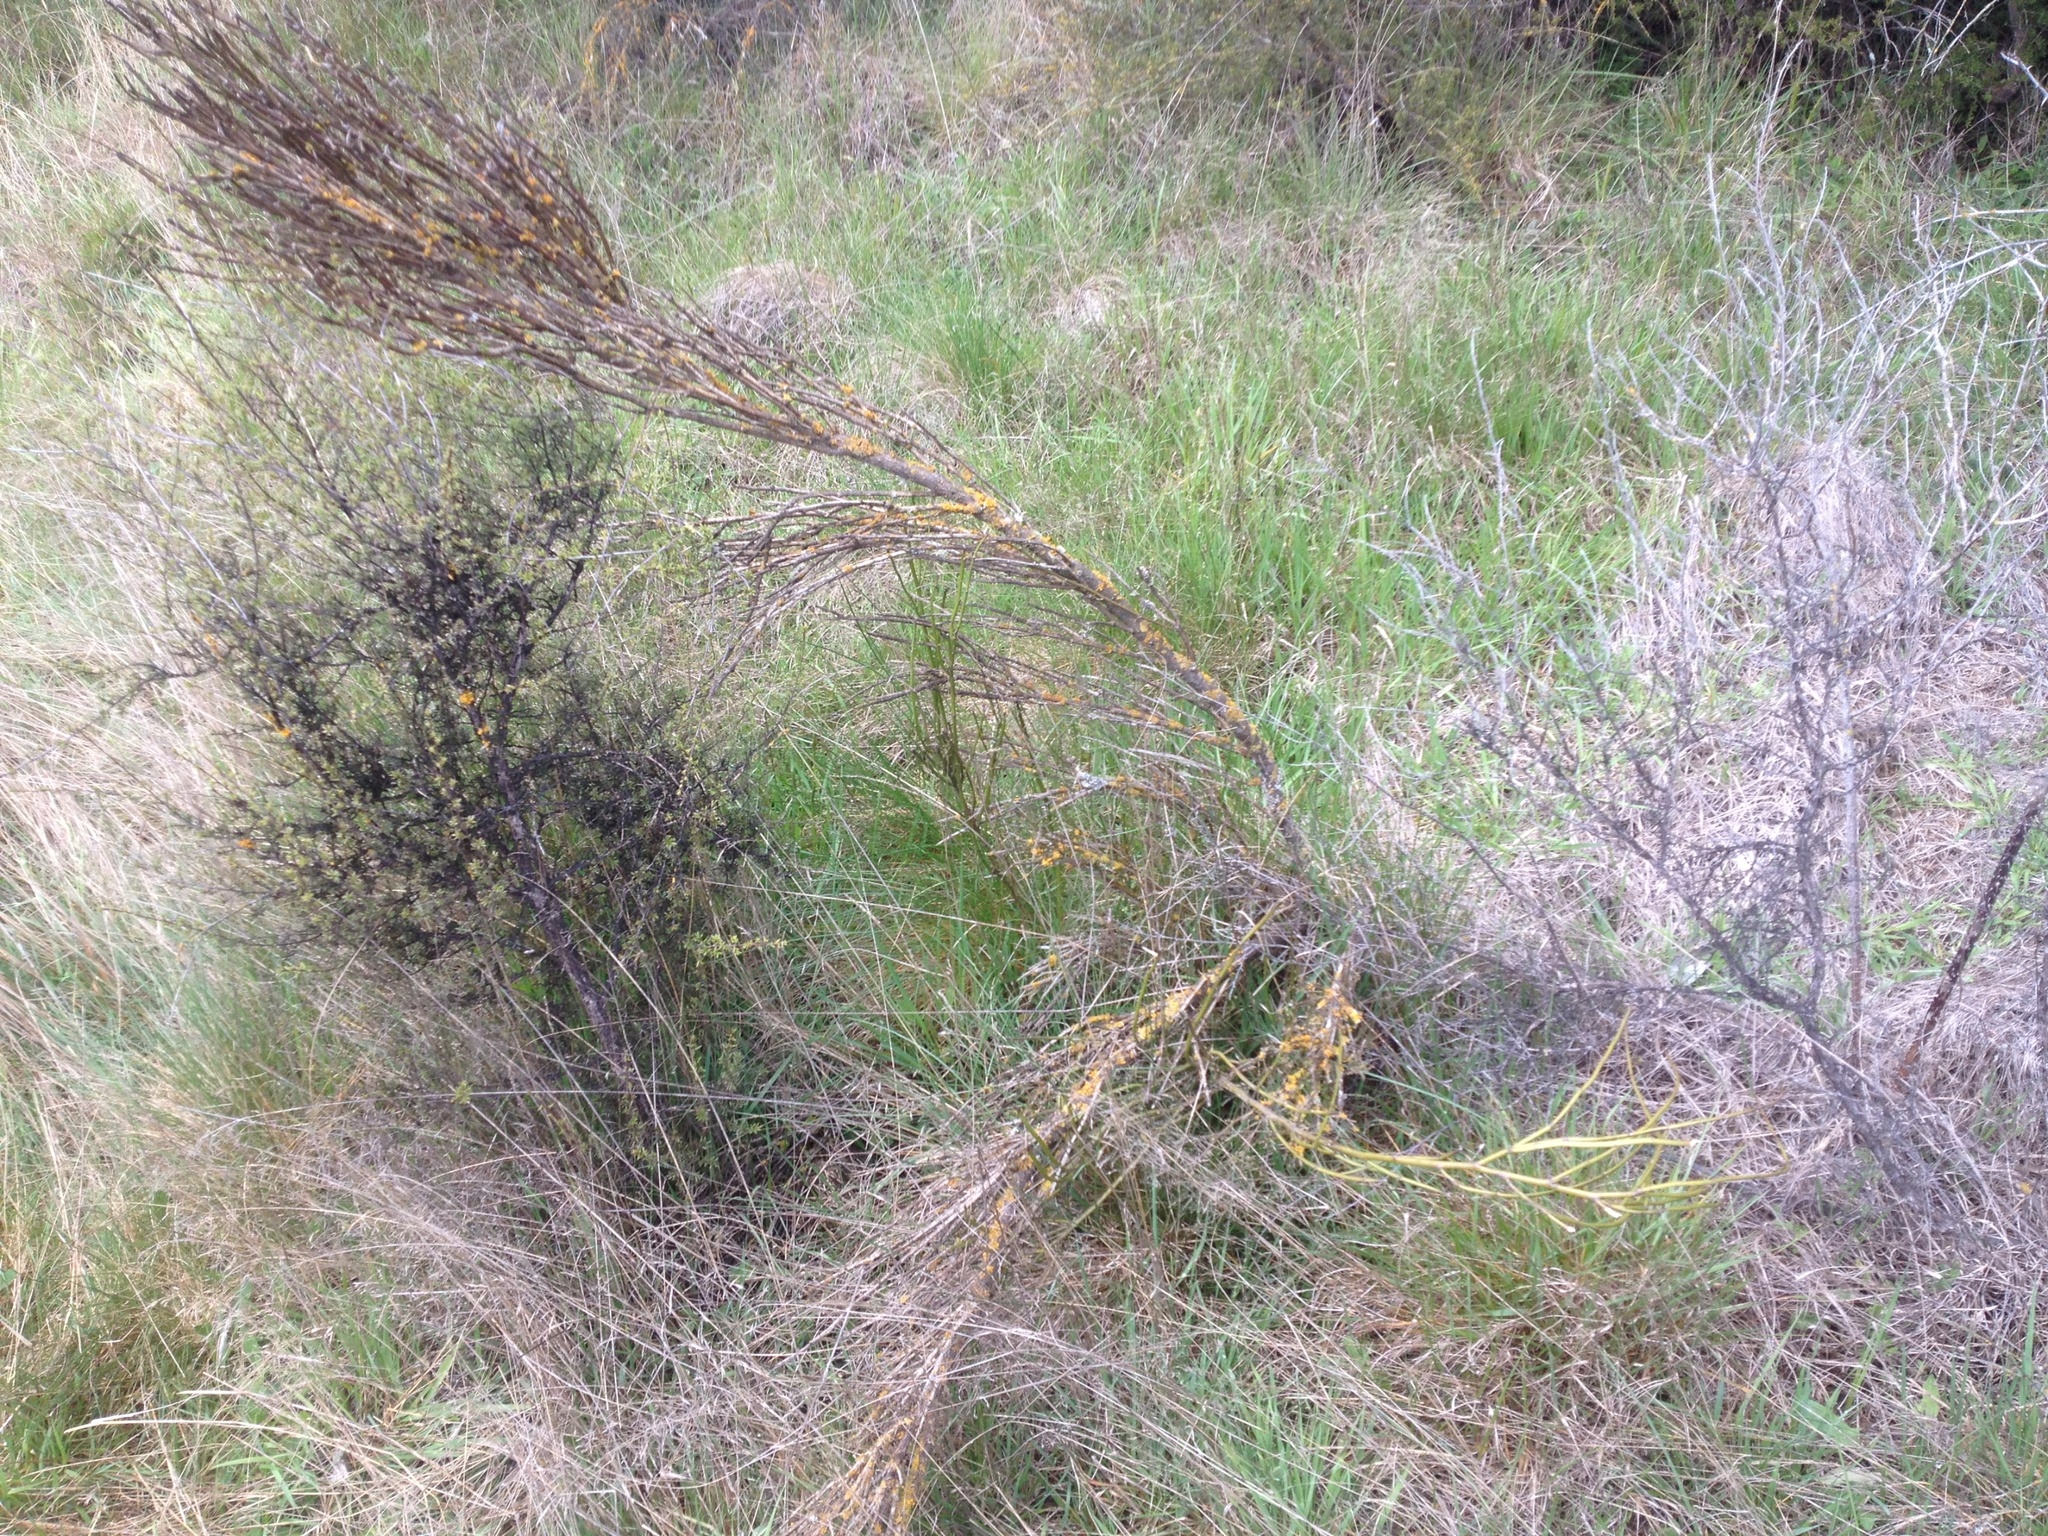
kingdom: Plantae
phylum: Tracheophyta
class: Magnoliopsida
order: Fabales
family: Fabaceae
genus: Carmichaelia
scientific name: Carmichaelia australis
